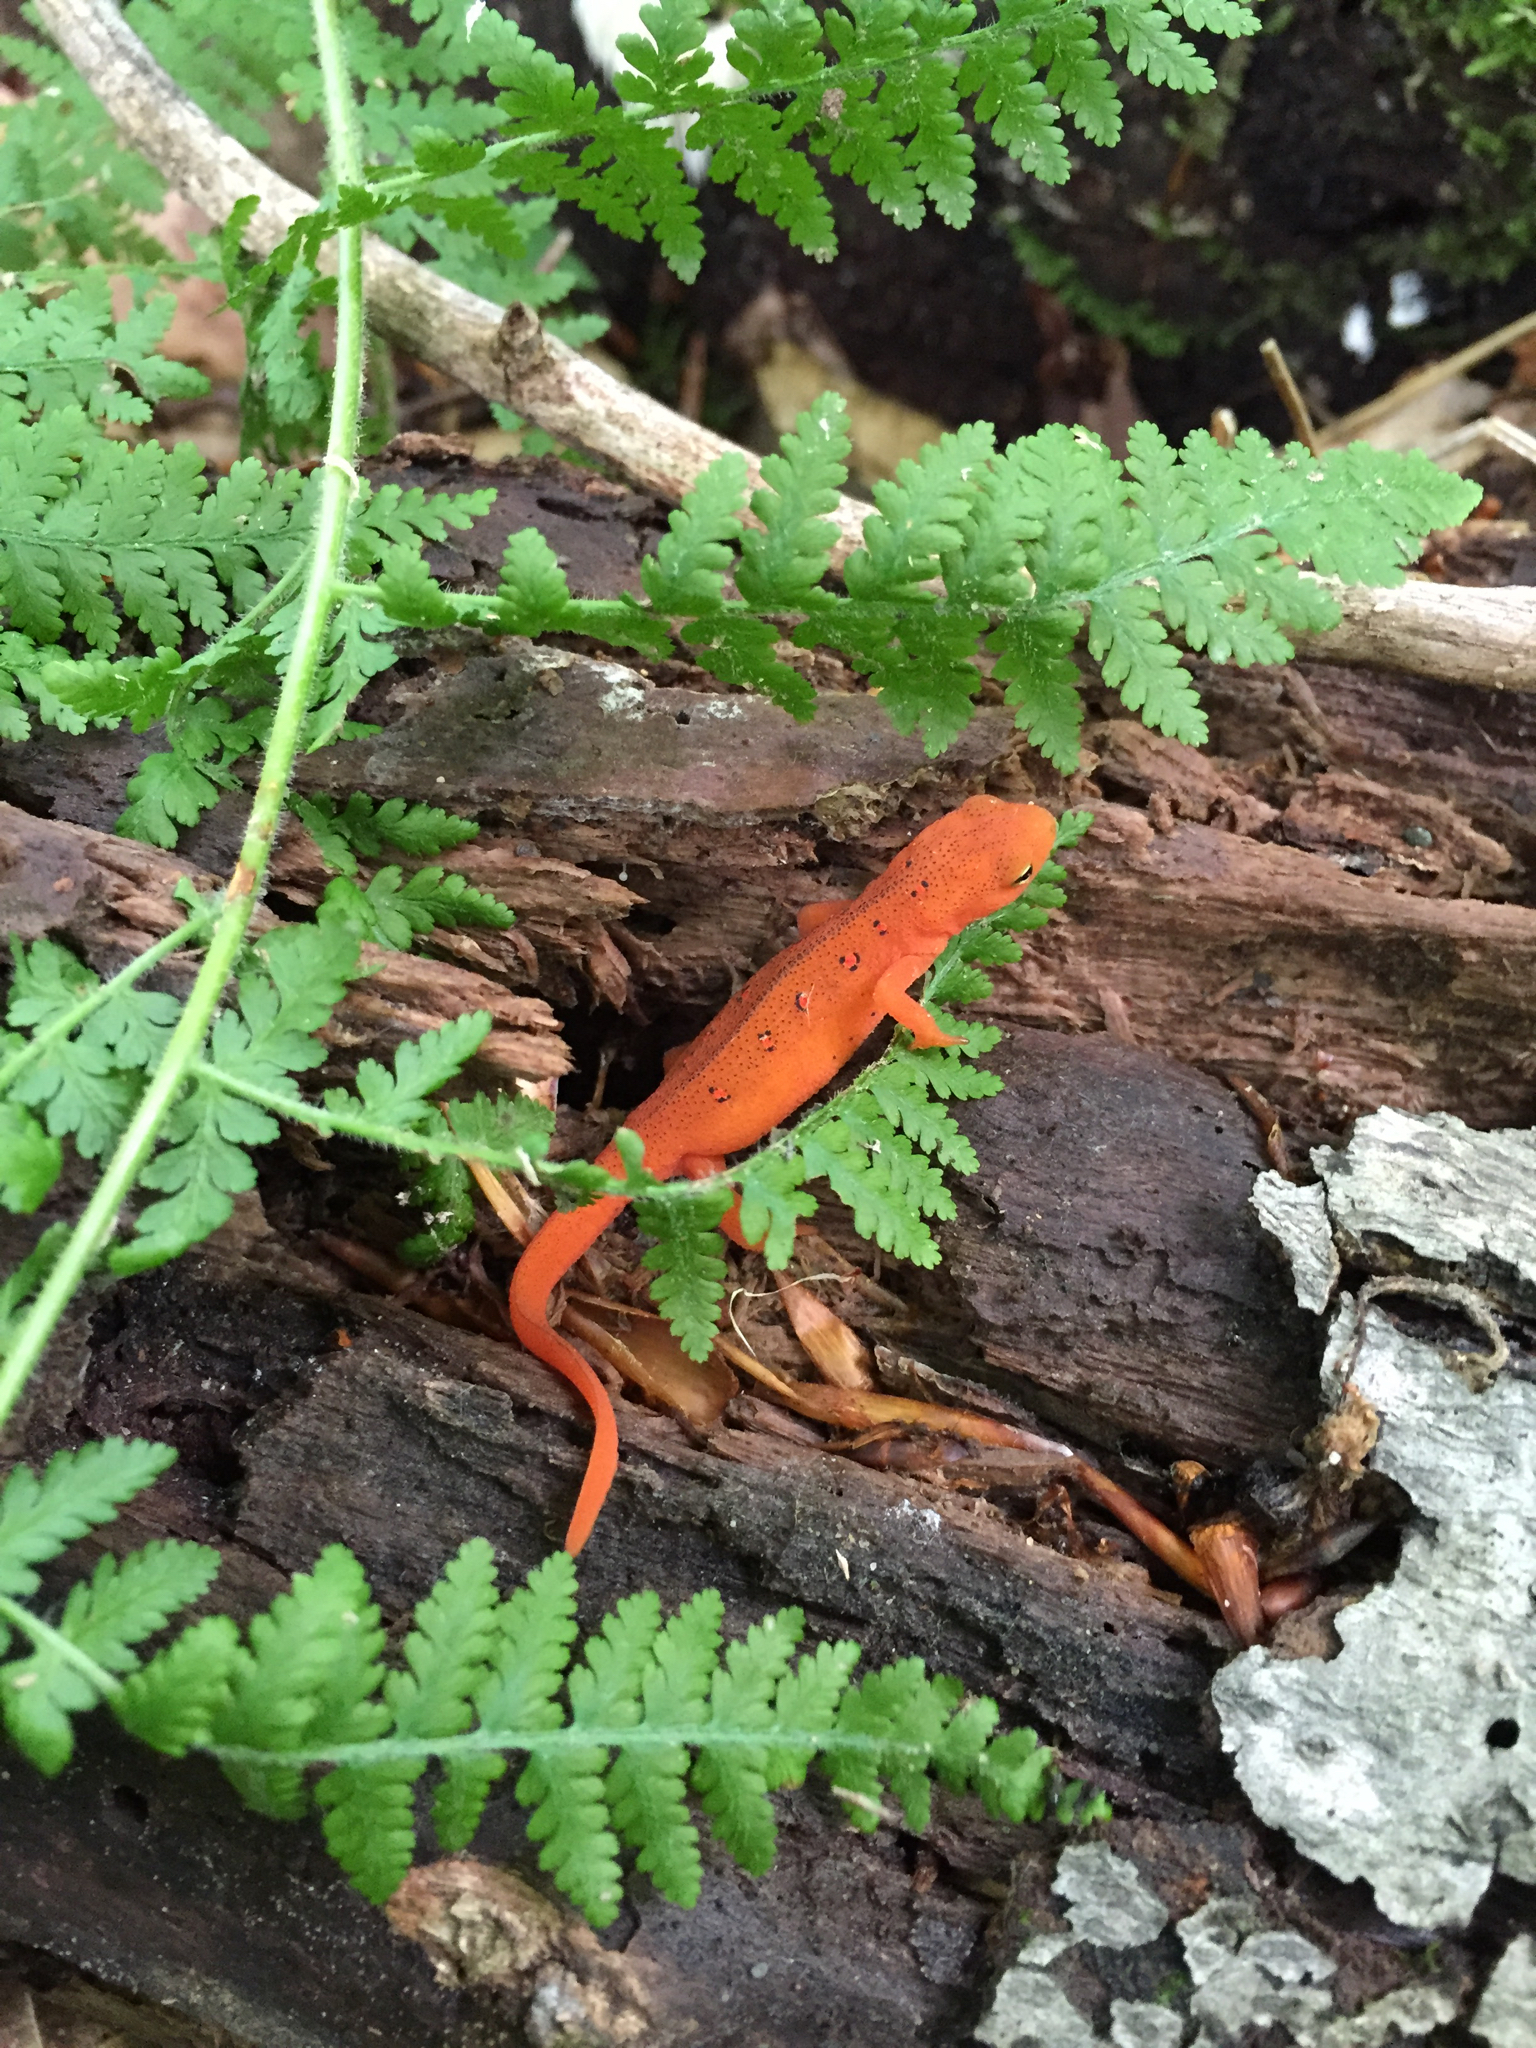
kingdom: Animalia
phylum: Chordata
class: Amphibia
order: Caudata
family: Salamandridae
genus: Notophthalmus
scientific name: Notophthalmus viridescens
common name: Eastern newt
